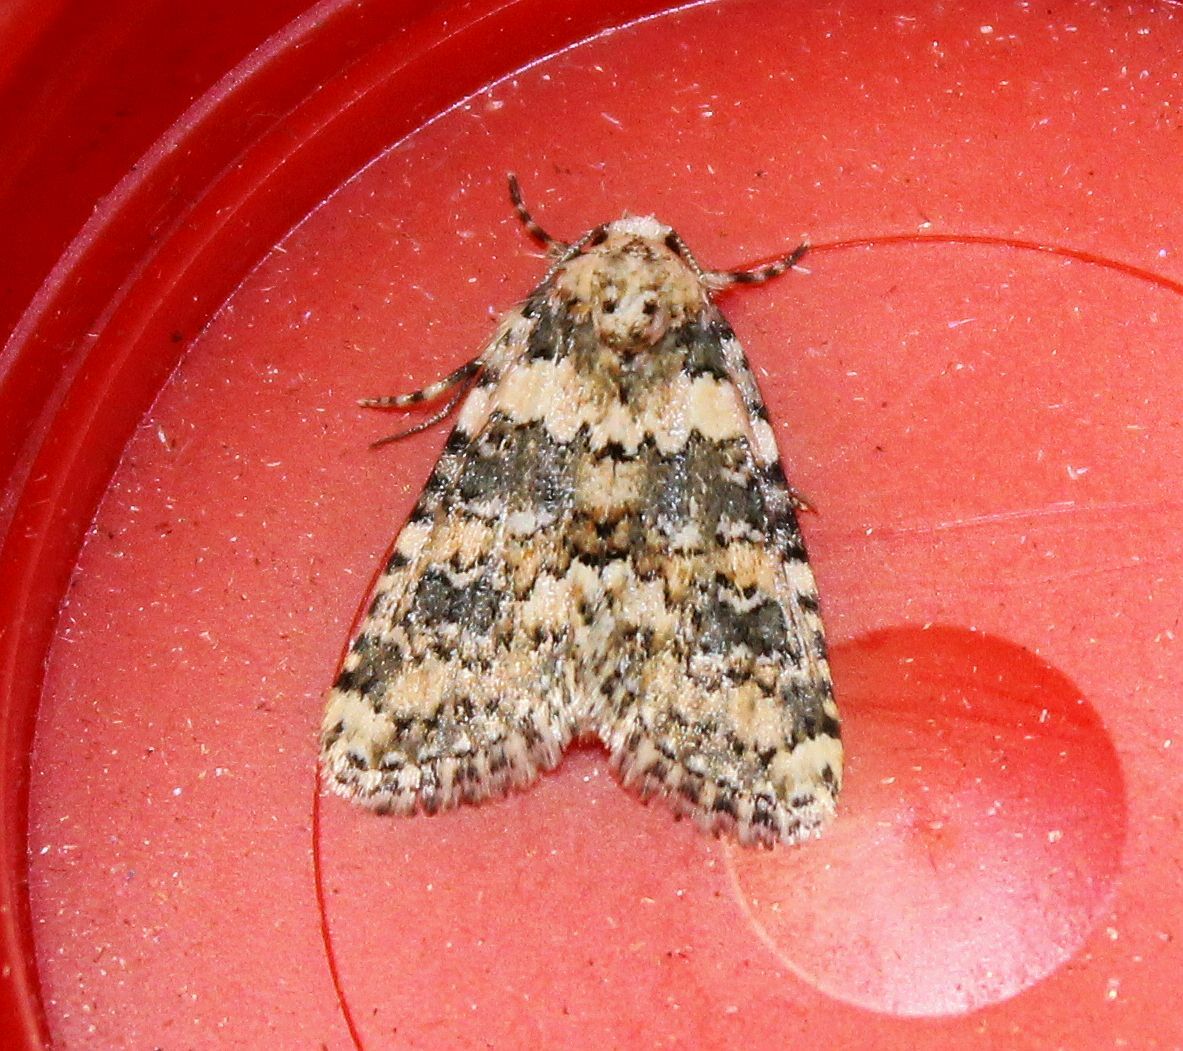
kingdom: Animalia
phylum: Arthropoda
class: Insecta
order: Lepidoptera
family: Noctuidae
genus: Bryophila
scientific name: Bryophila domestica
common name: Marbled beauty
